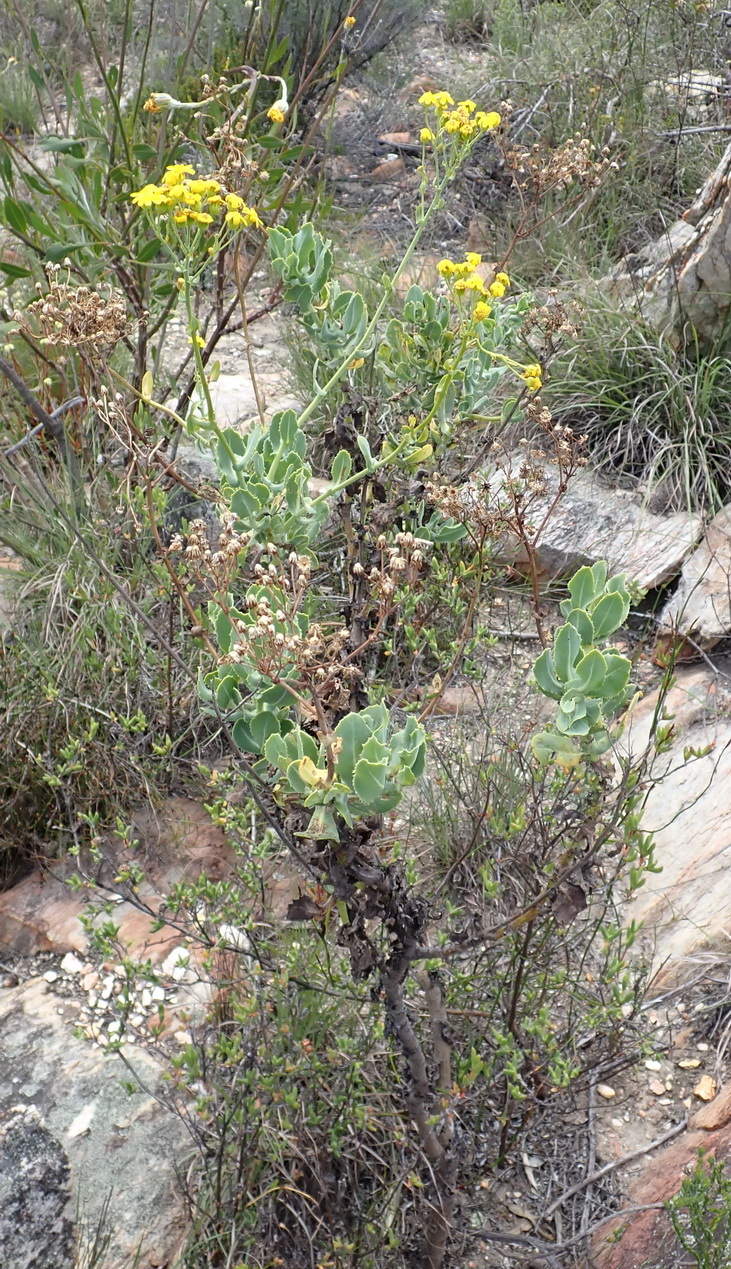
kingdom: Plantae
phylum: Tracheophyta
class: Magnoliopsida
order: Asterales
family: Asteraceae
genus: Othonna
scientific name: Othonna parviflora
